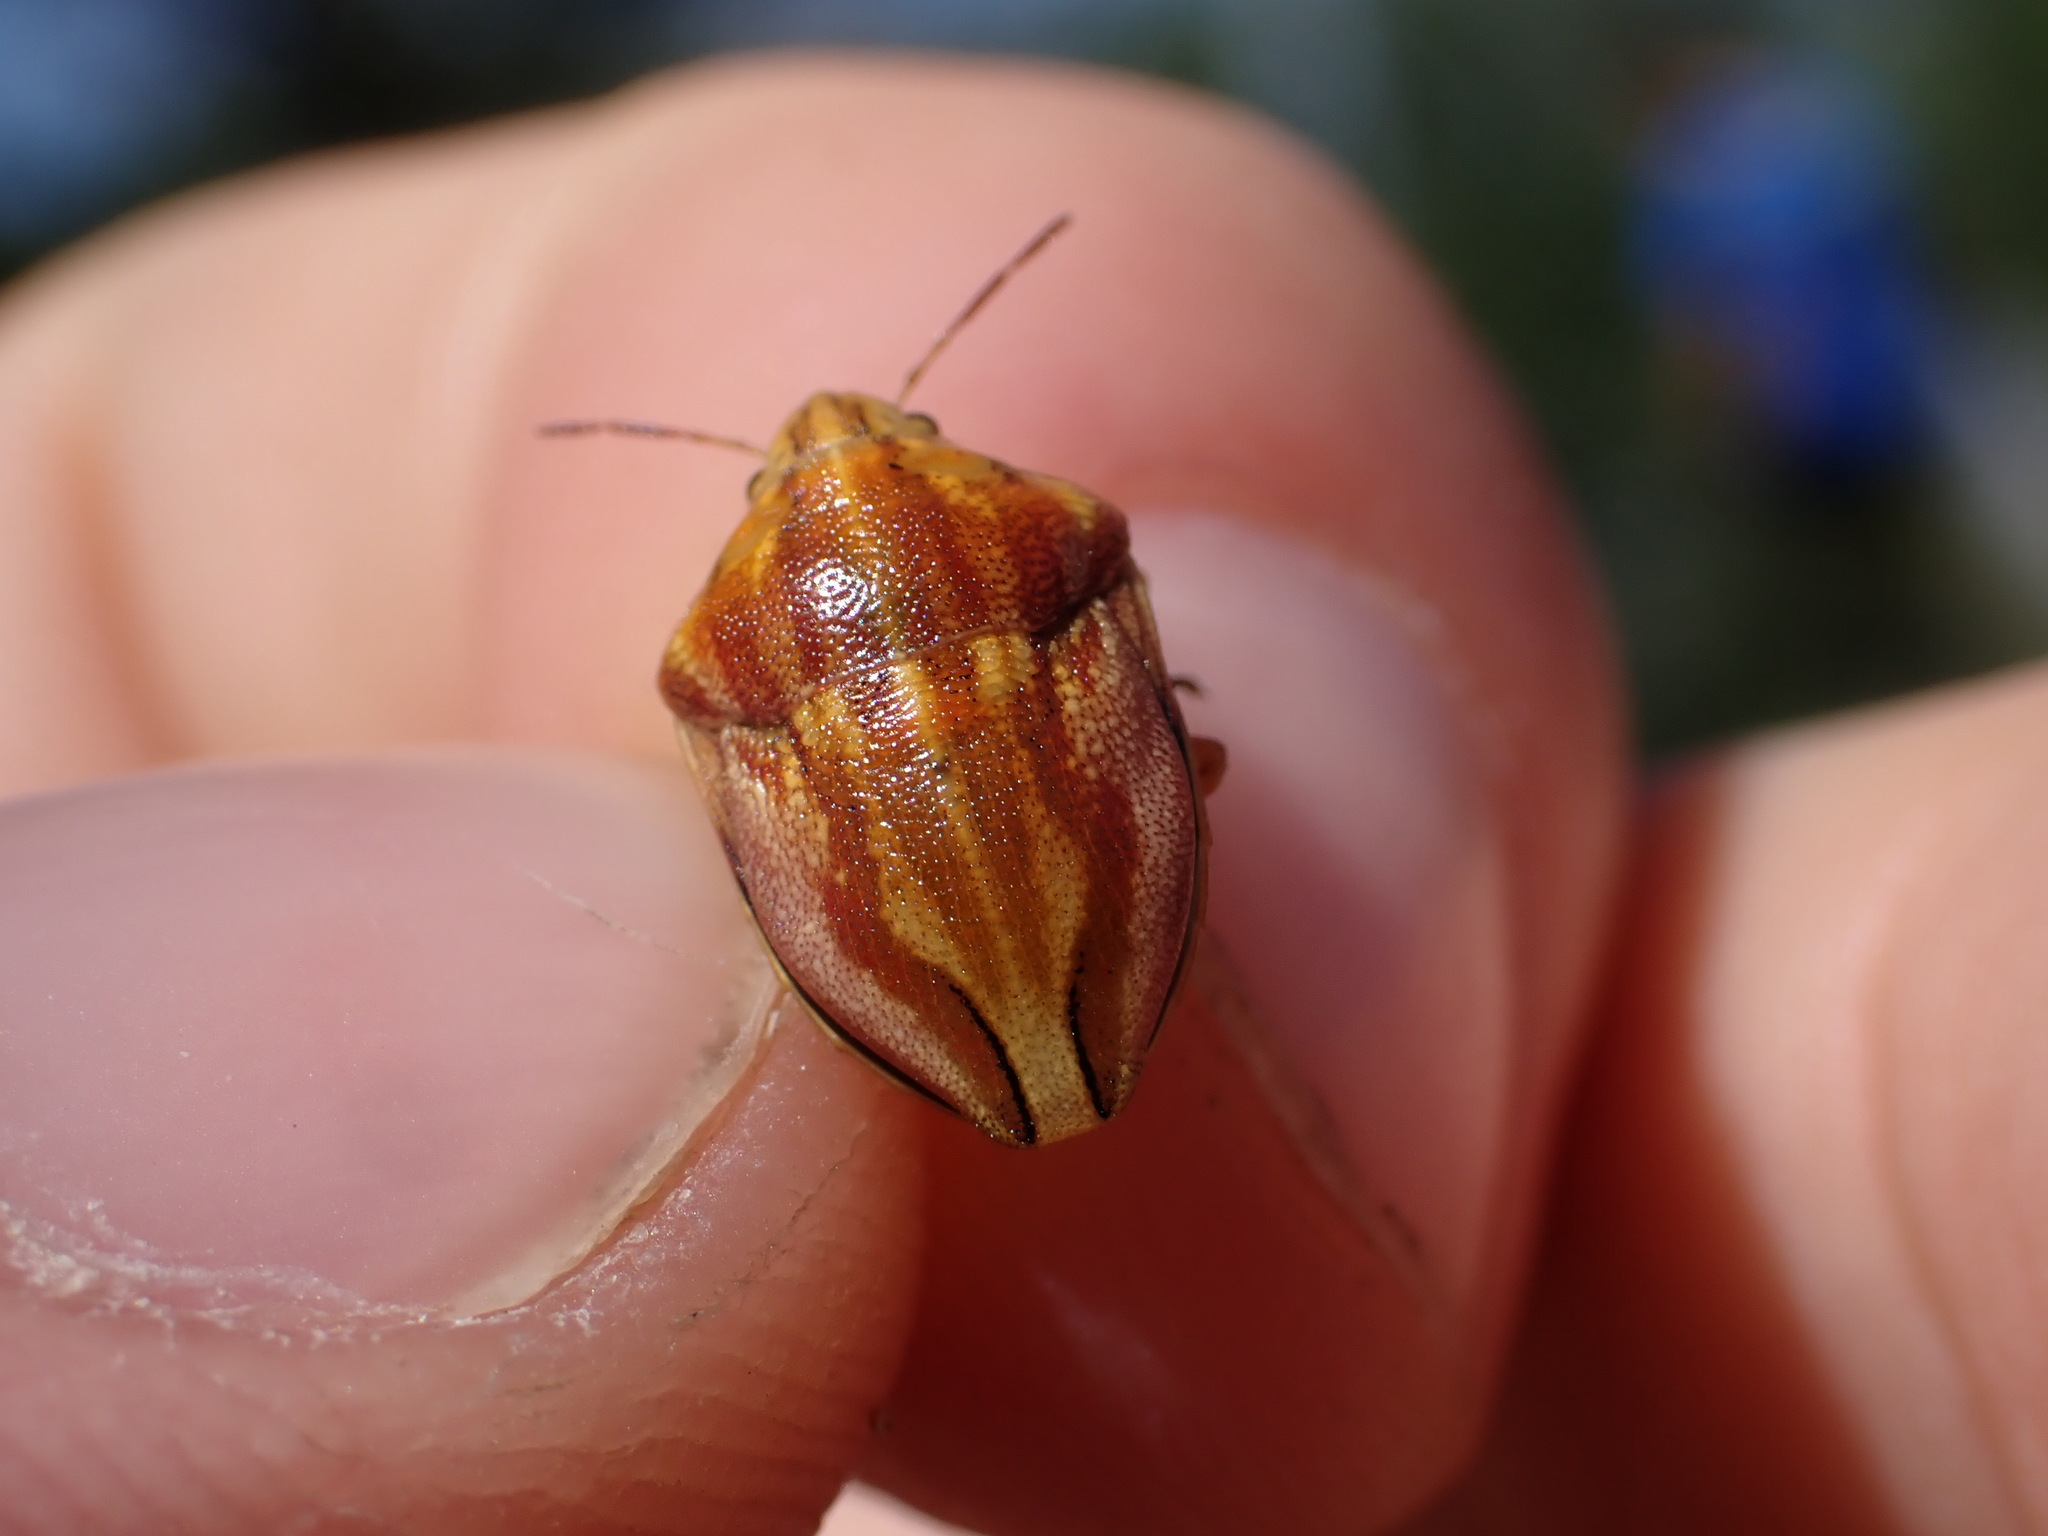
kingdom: Animalia
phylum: Arthropoda
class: Insecta
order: Hemiptera
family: Scutelleridae
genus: Odontotarsus
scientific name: Odontotarsus purpureolineatus
